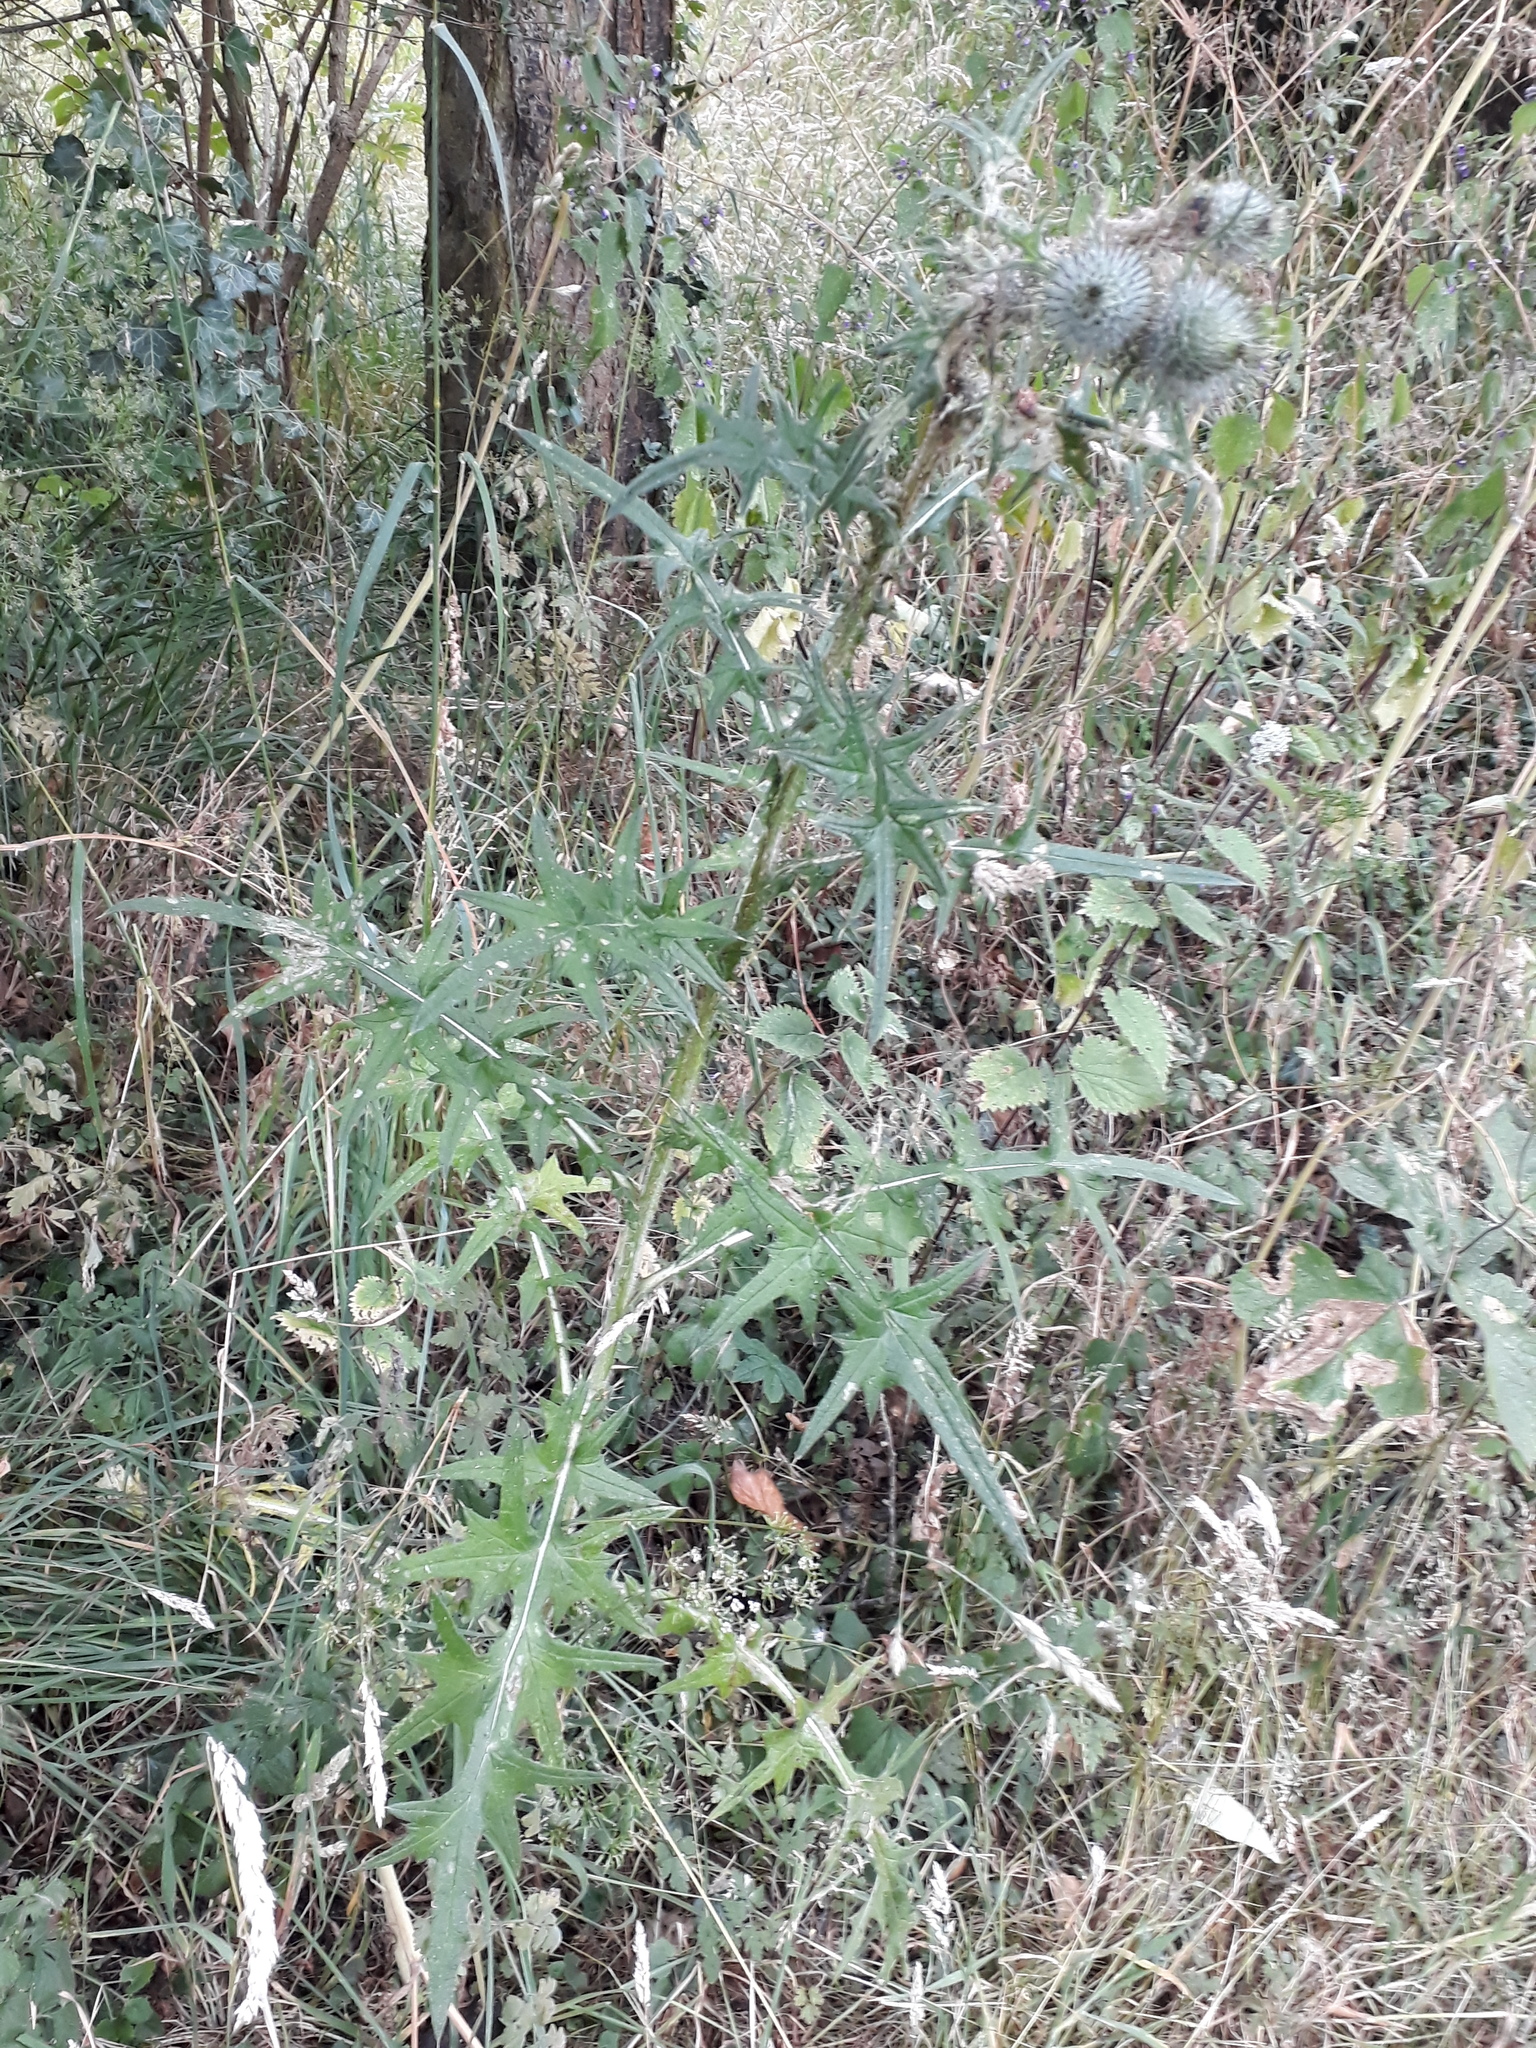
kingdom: Plantae
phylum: Tracheophyta
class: Magnoliopsida
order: Asterales
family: Asteraceae
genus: Cirsium
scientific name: Cirsium vulgare
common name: Bull thistle
